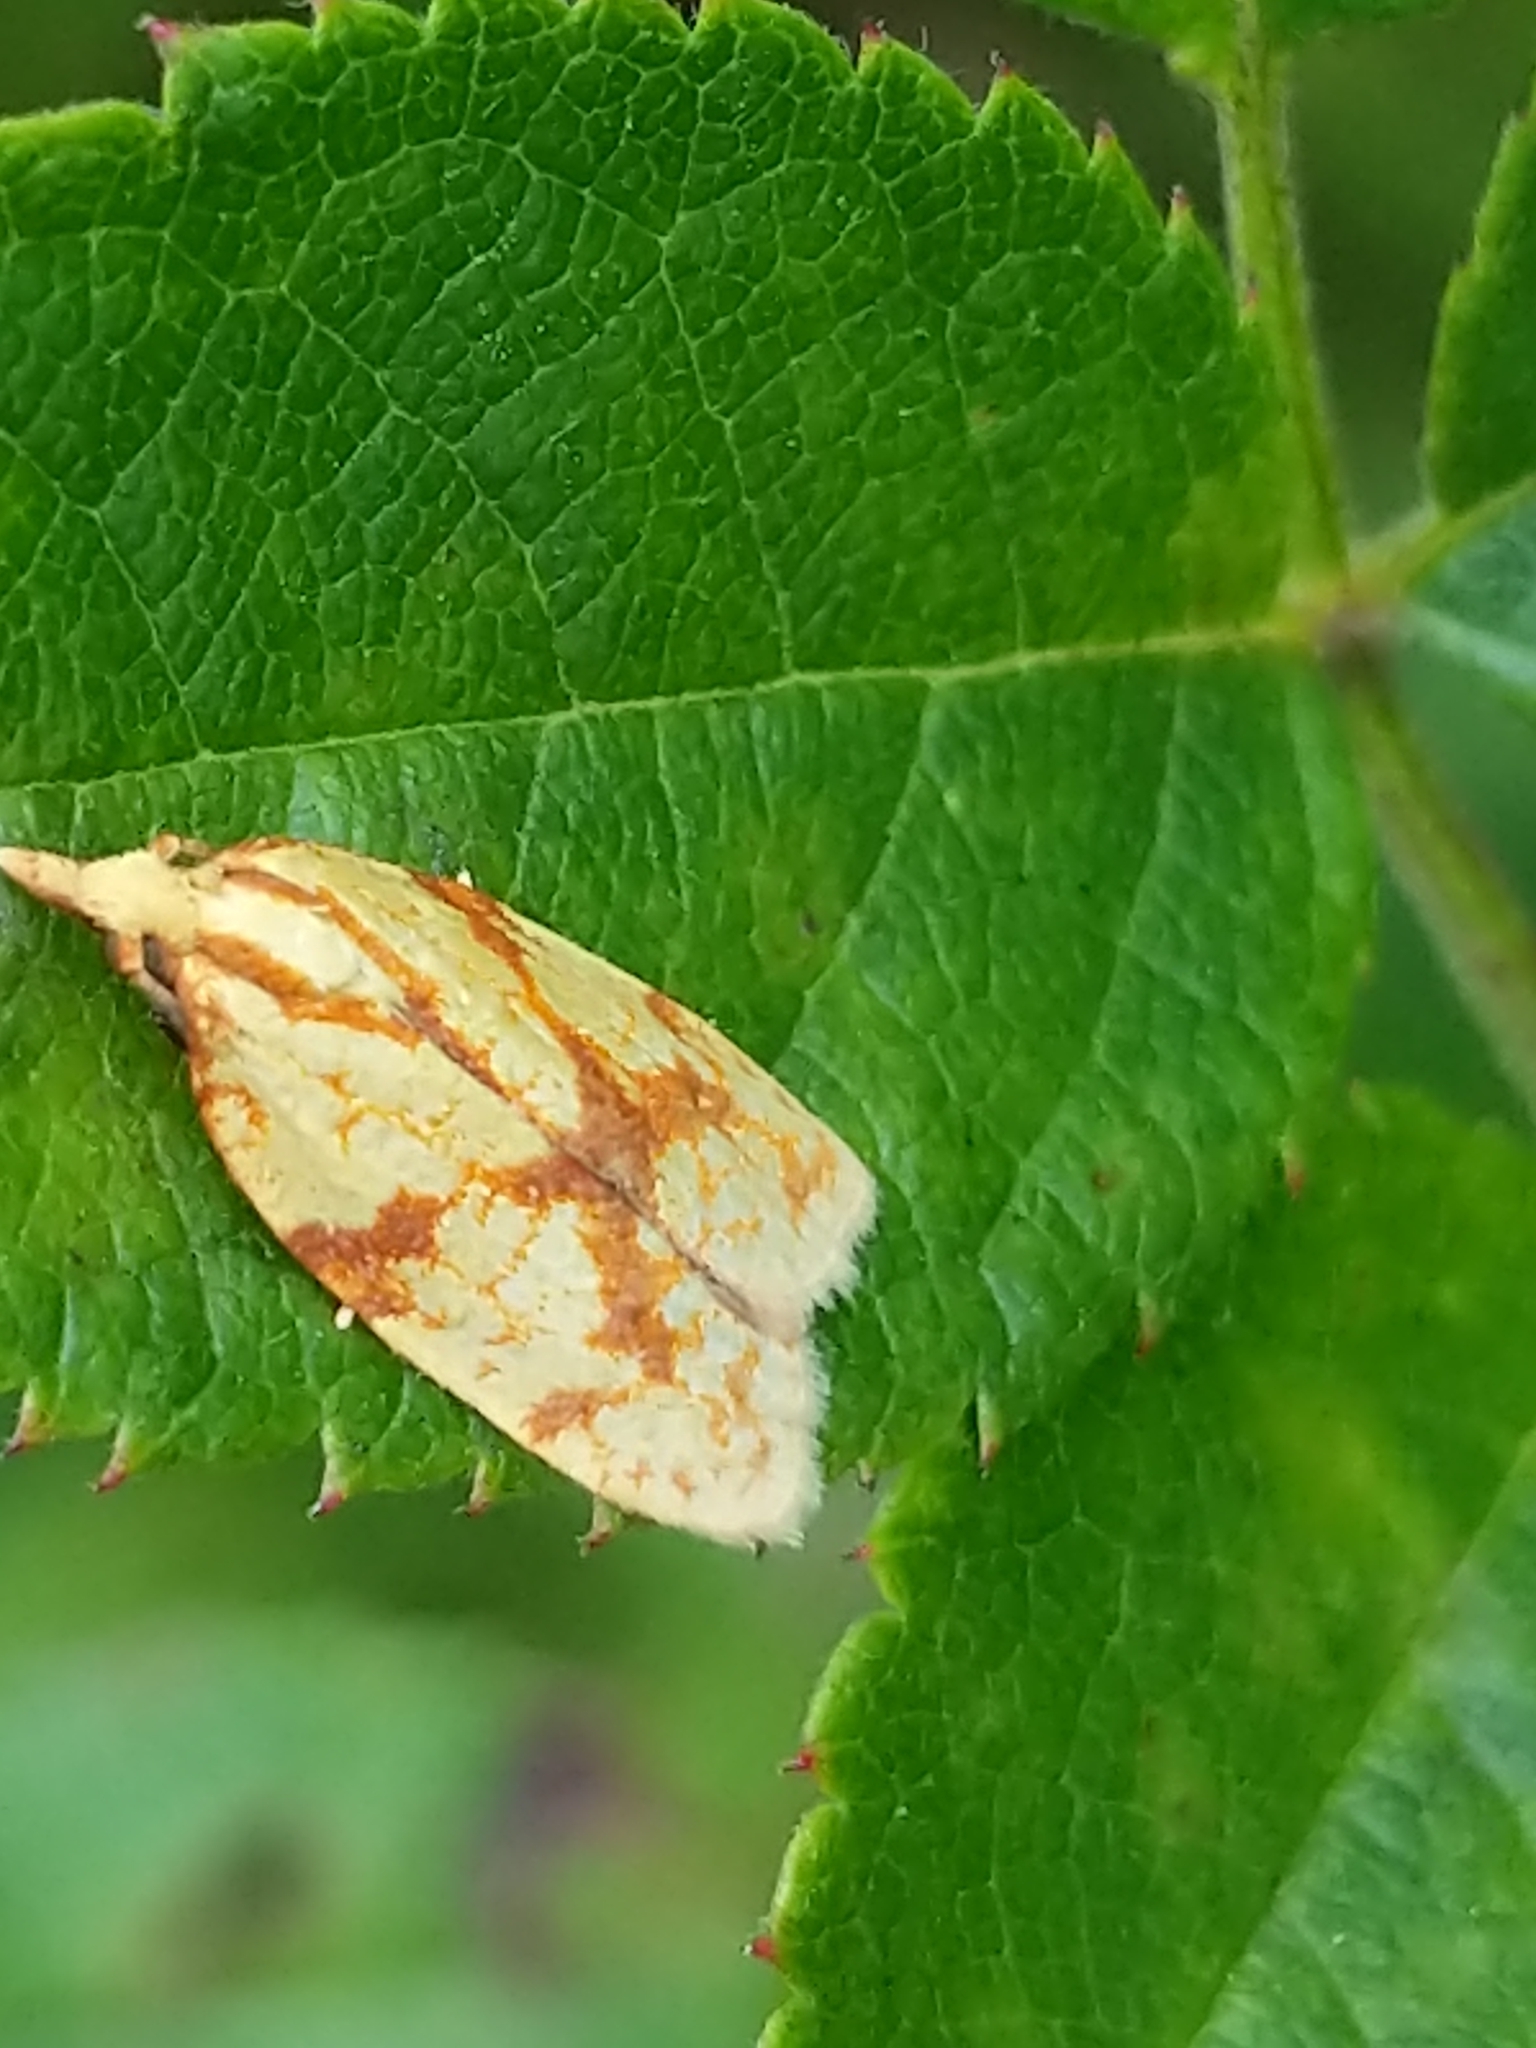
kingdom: Animalia
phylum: Arthropoda
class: Insecta
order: Lepidoptera
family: Tortricidae
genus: Sparganothis
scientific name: Sparganothis sulfureana
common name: Sparganothis fruitworm moth
